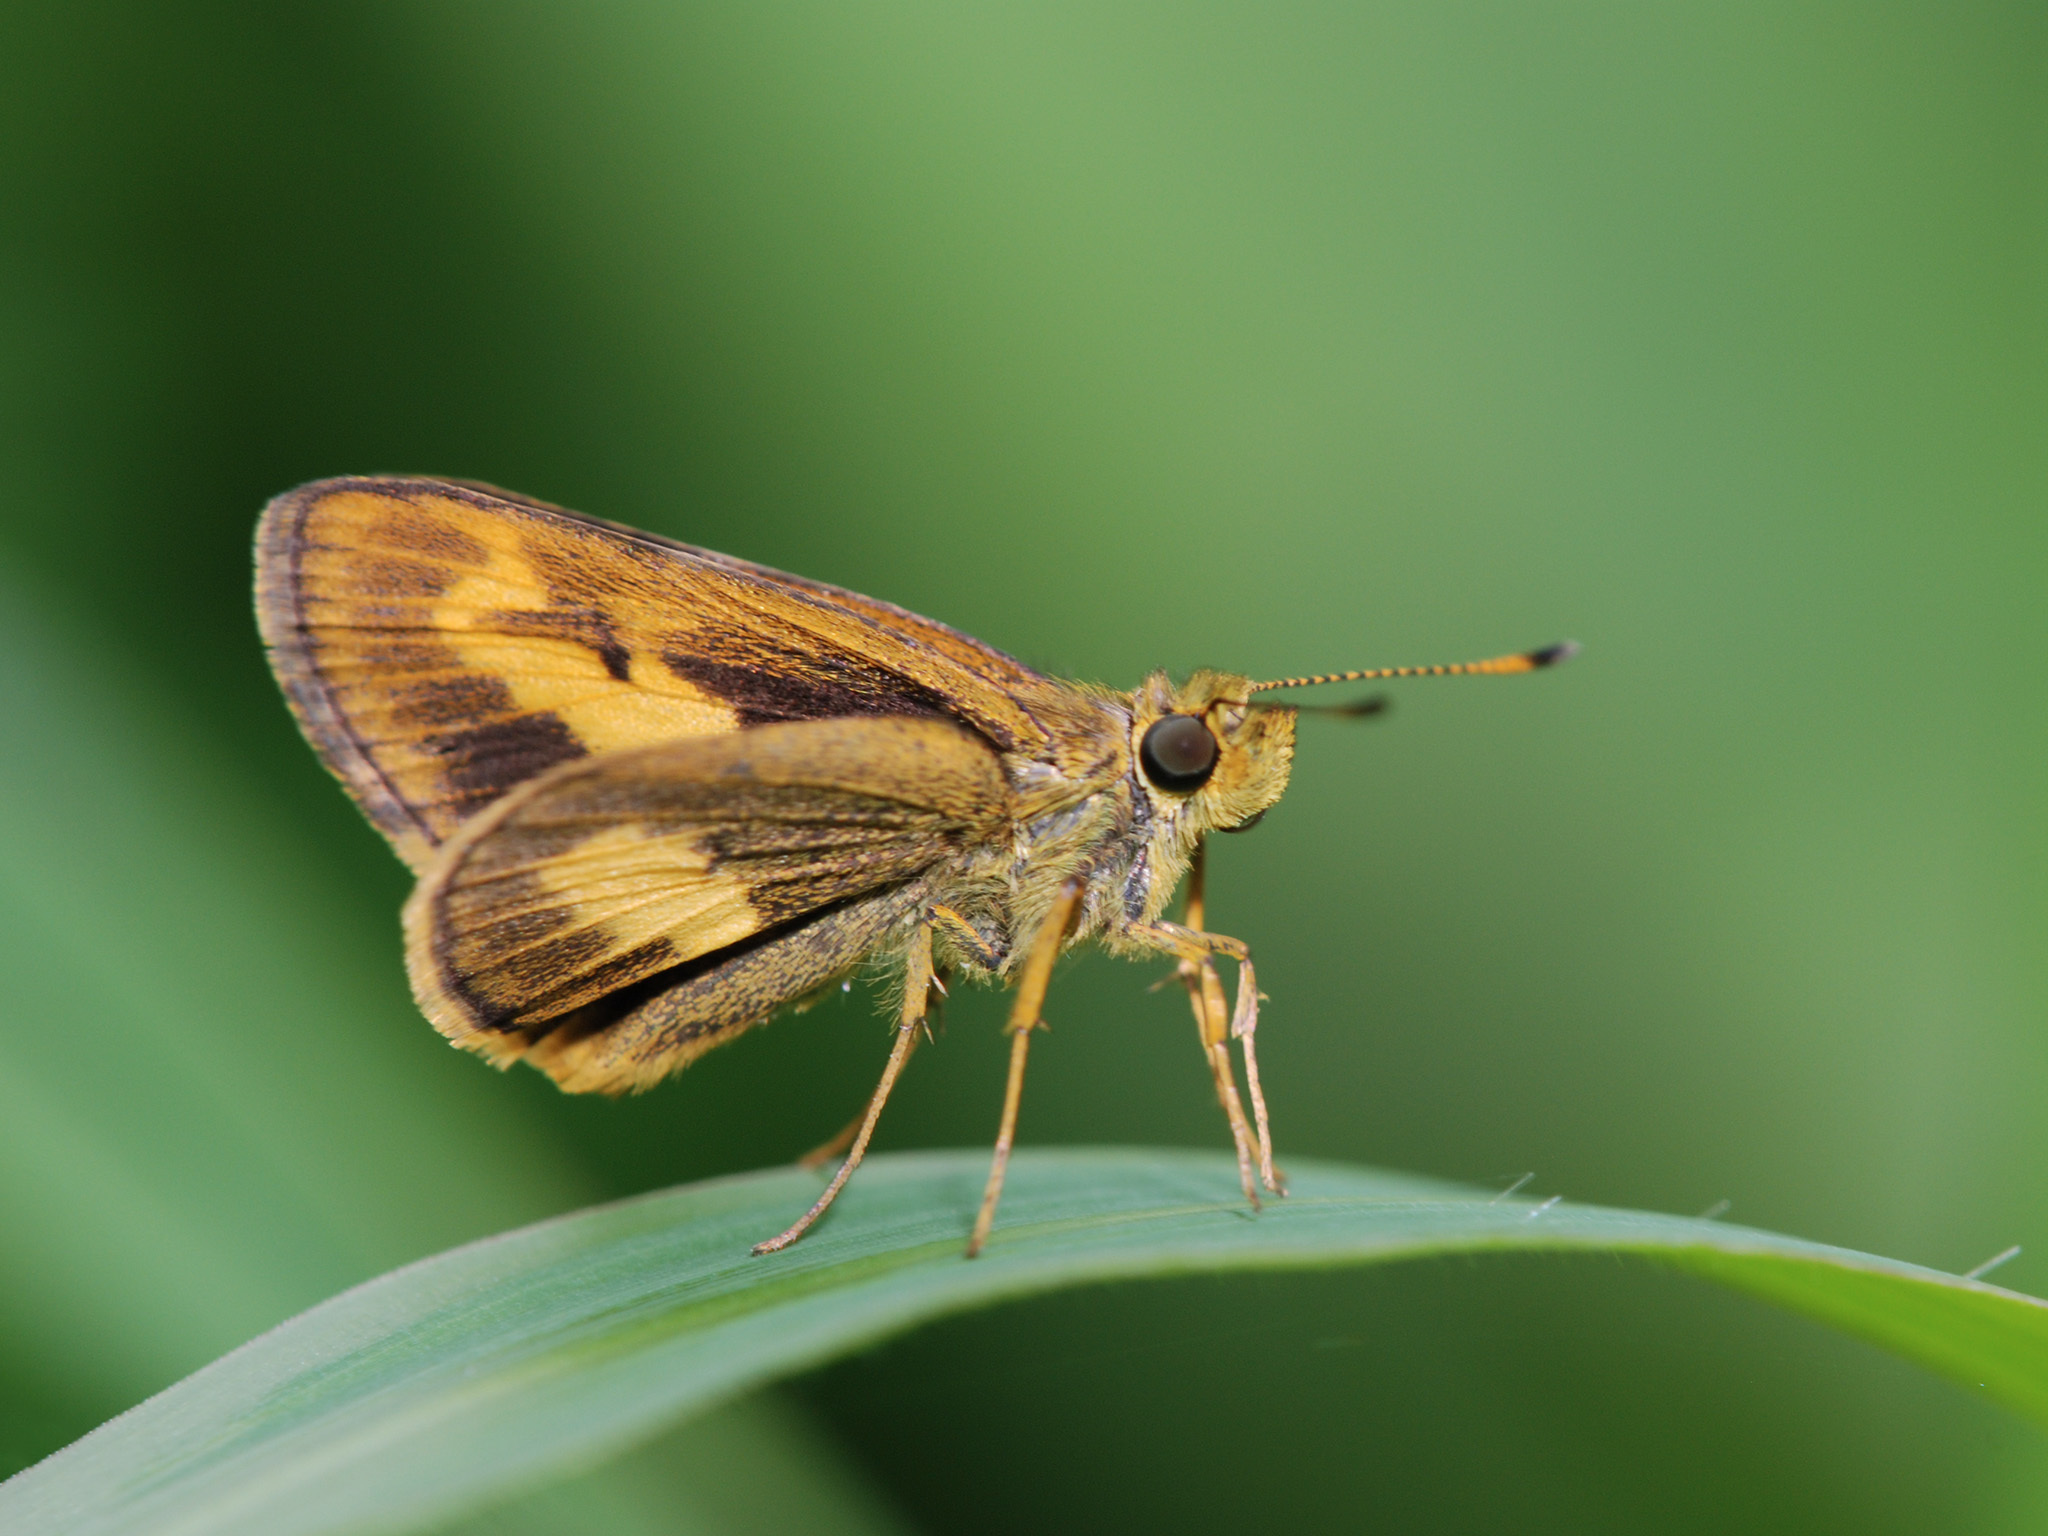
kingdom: Animalia
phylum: Arthropoda
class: Insecta
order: Lepidoptera
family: Hesperiidae
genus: Oriens
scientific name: Oriens paragola
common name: Malay dartlet
